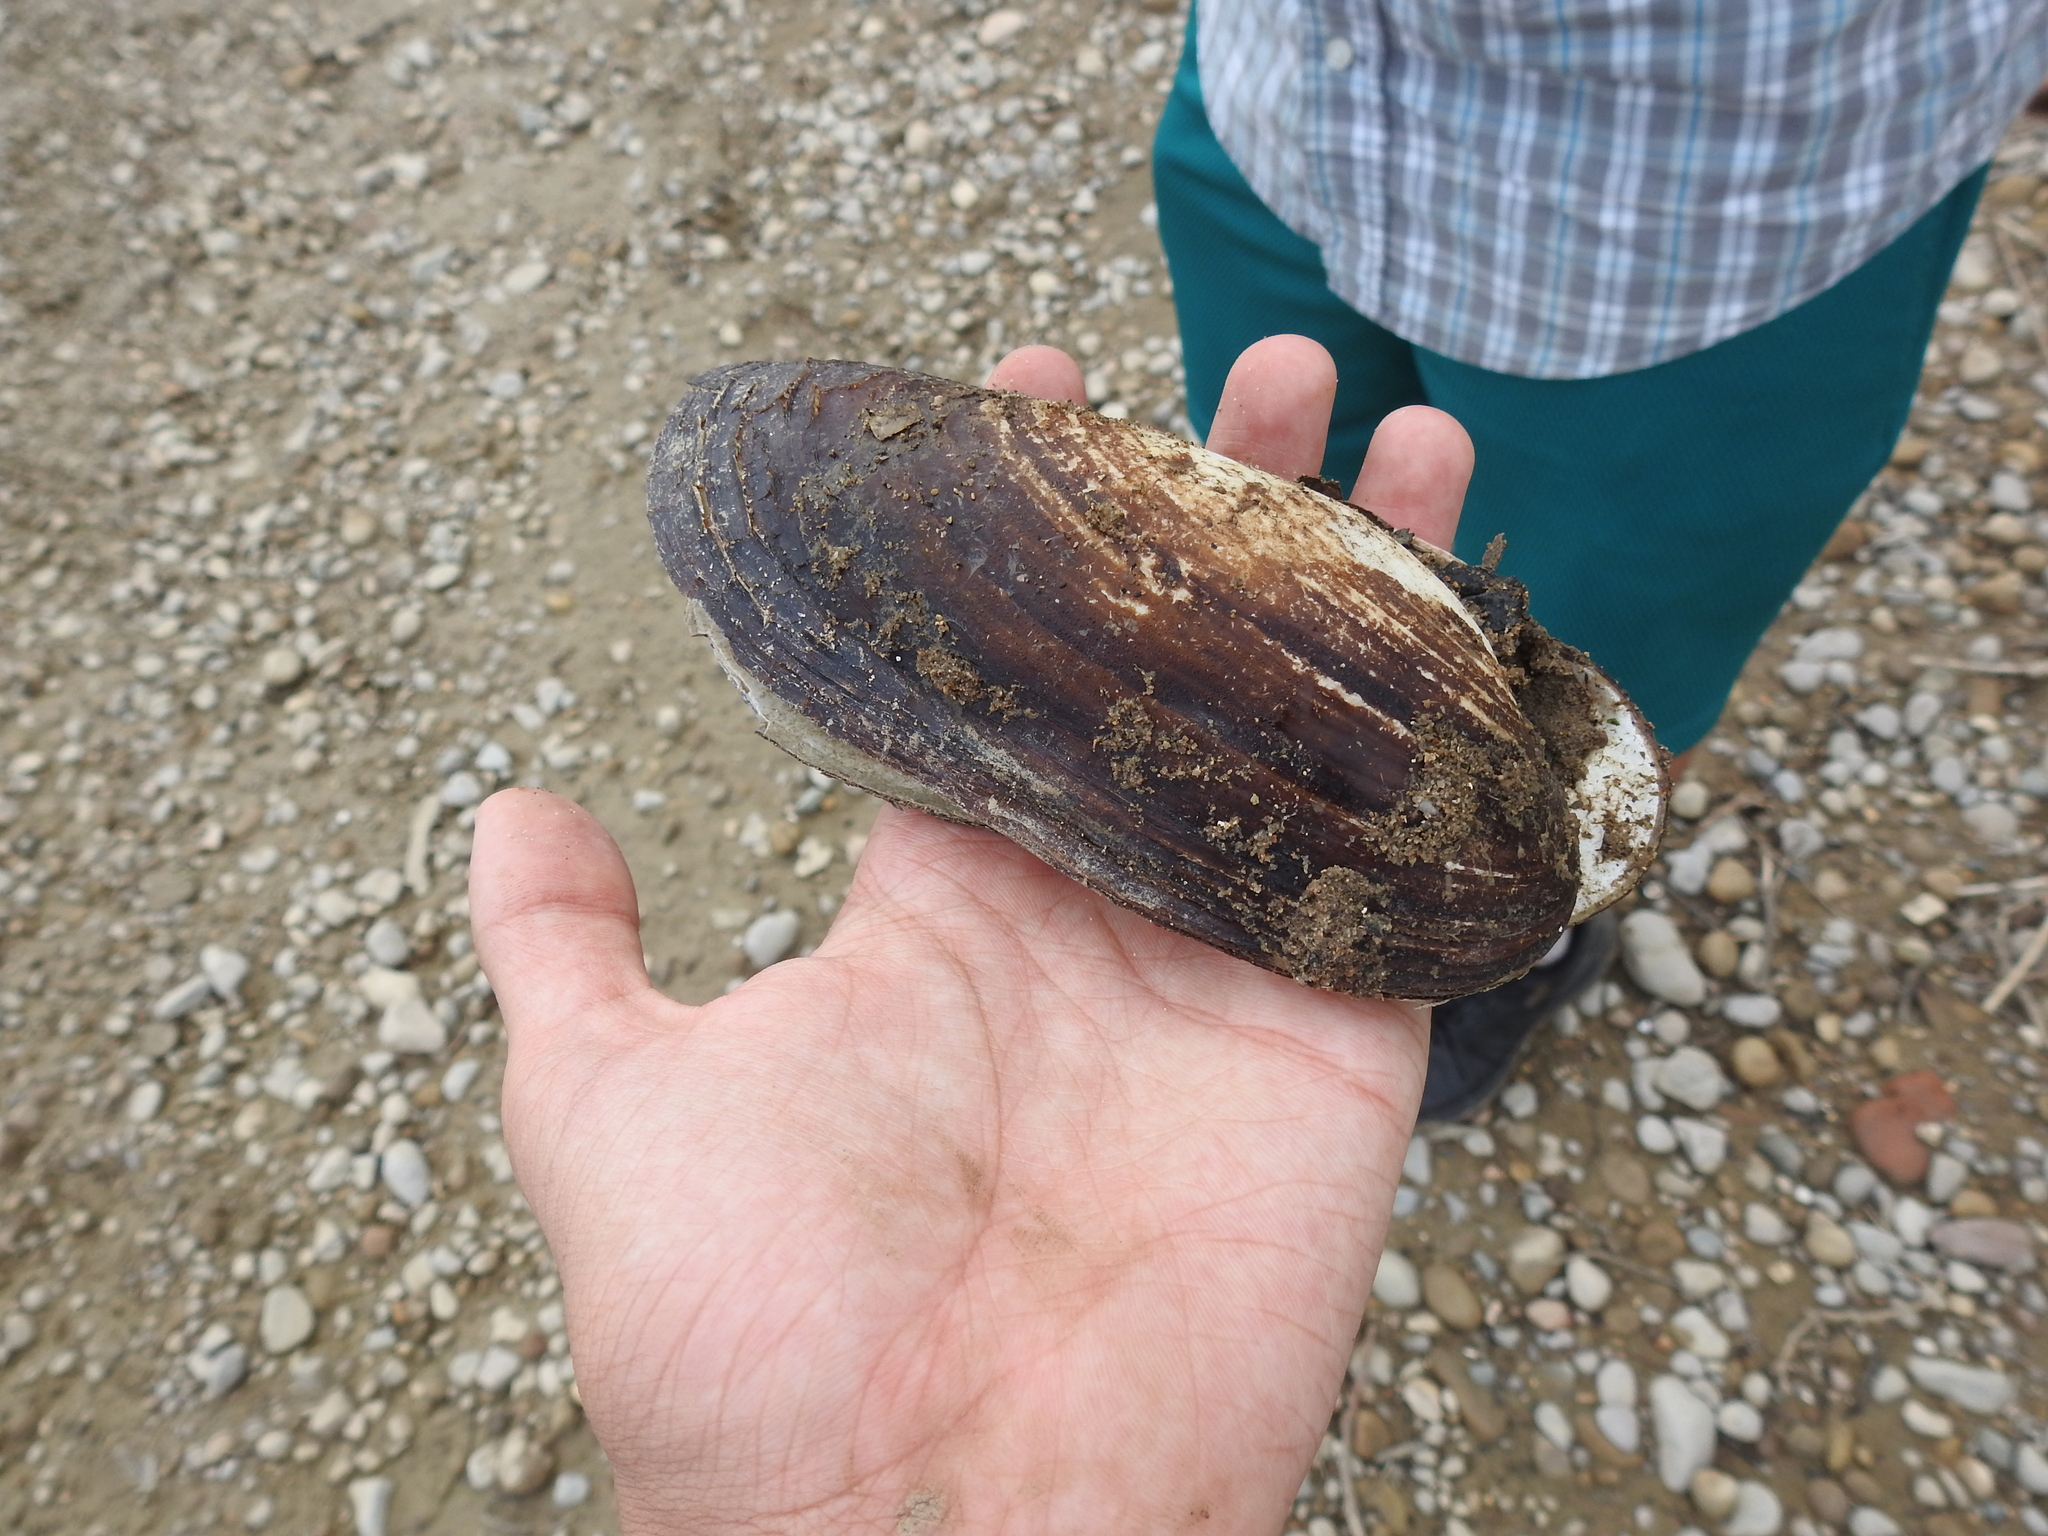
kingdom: Animalia
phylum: Mollusca
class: Bivalvia
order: Unionida
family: Unionidae
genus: Ligumia
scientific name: Ligumia recta
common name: Black sandshell
